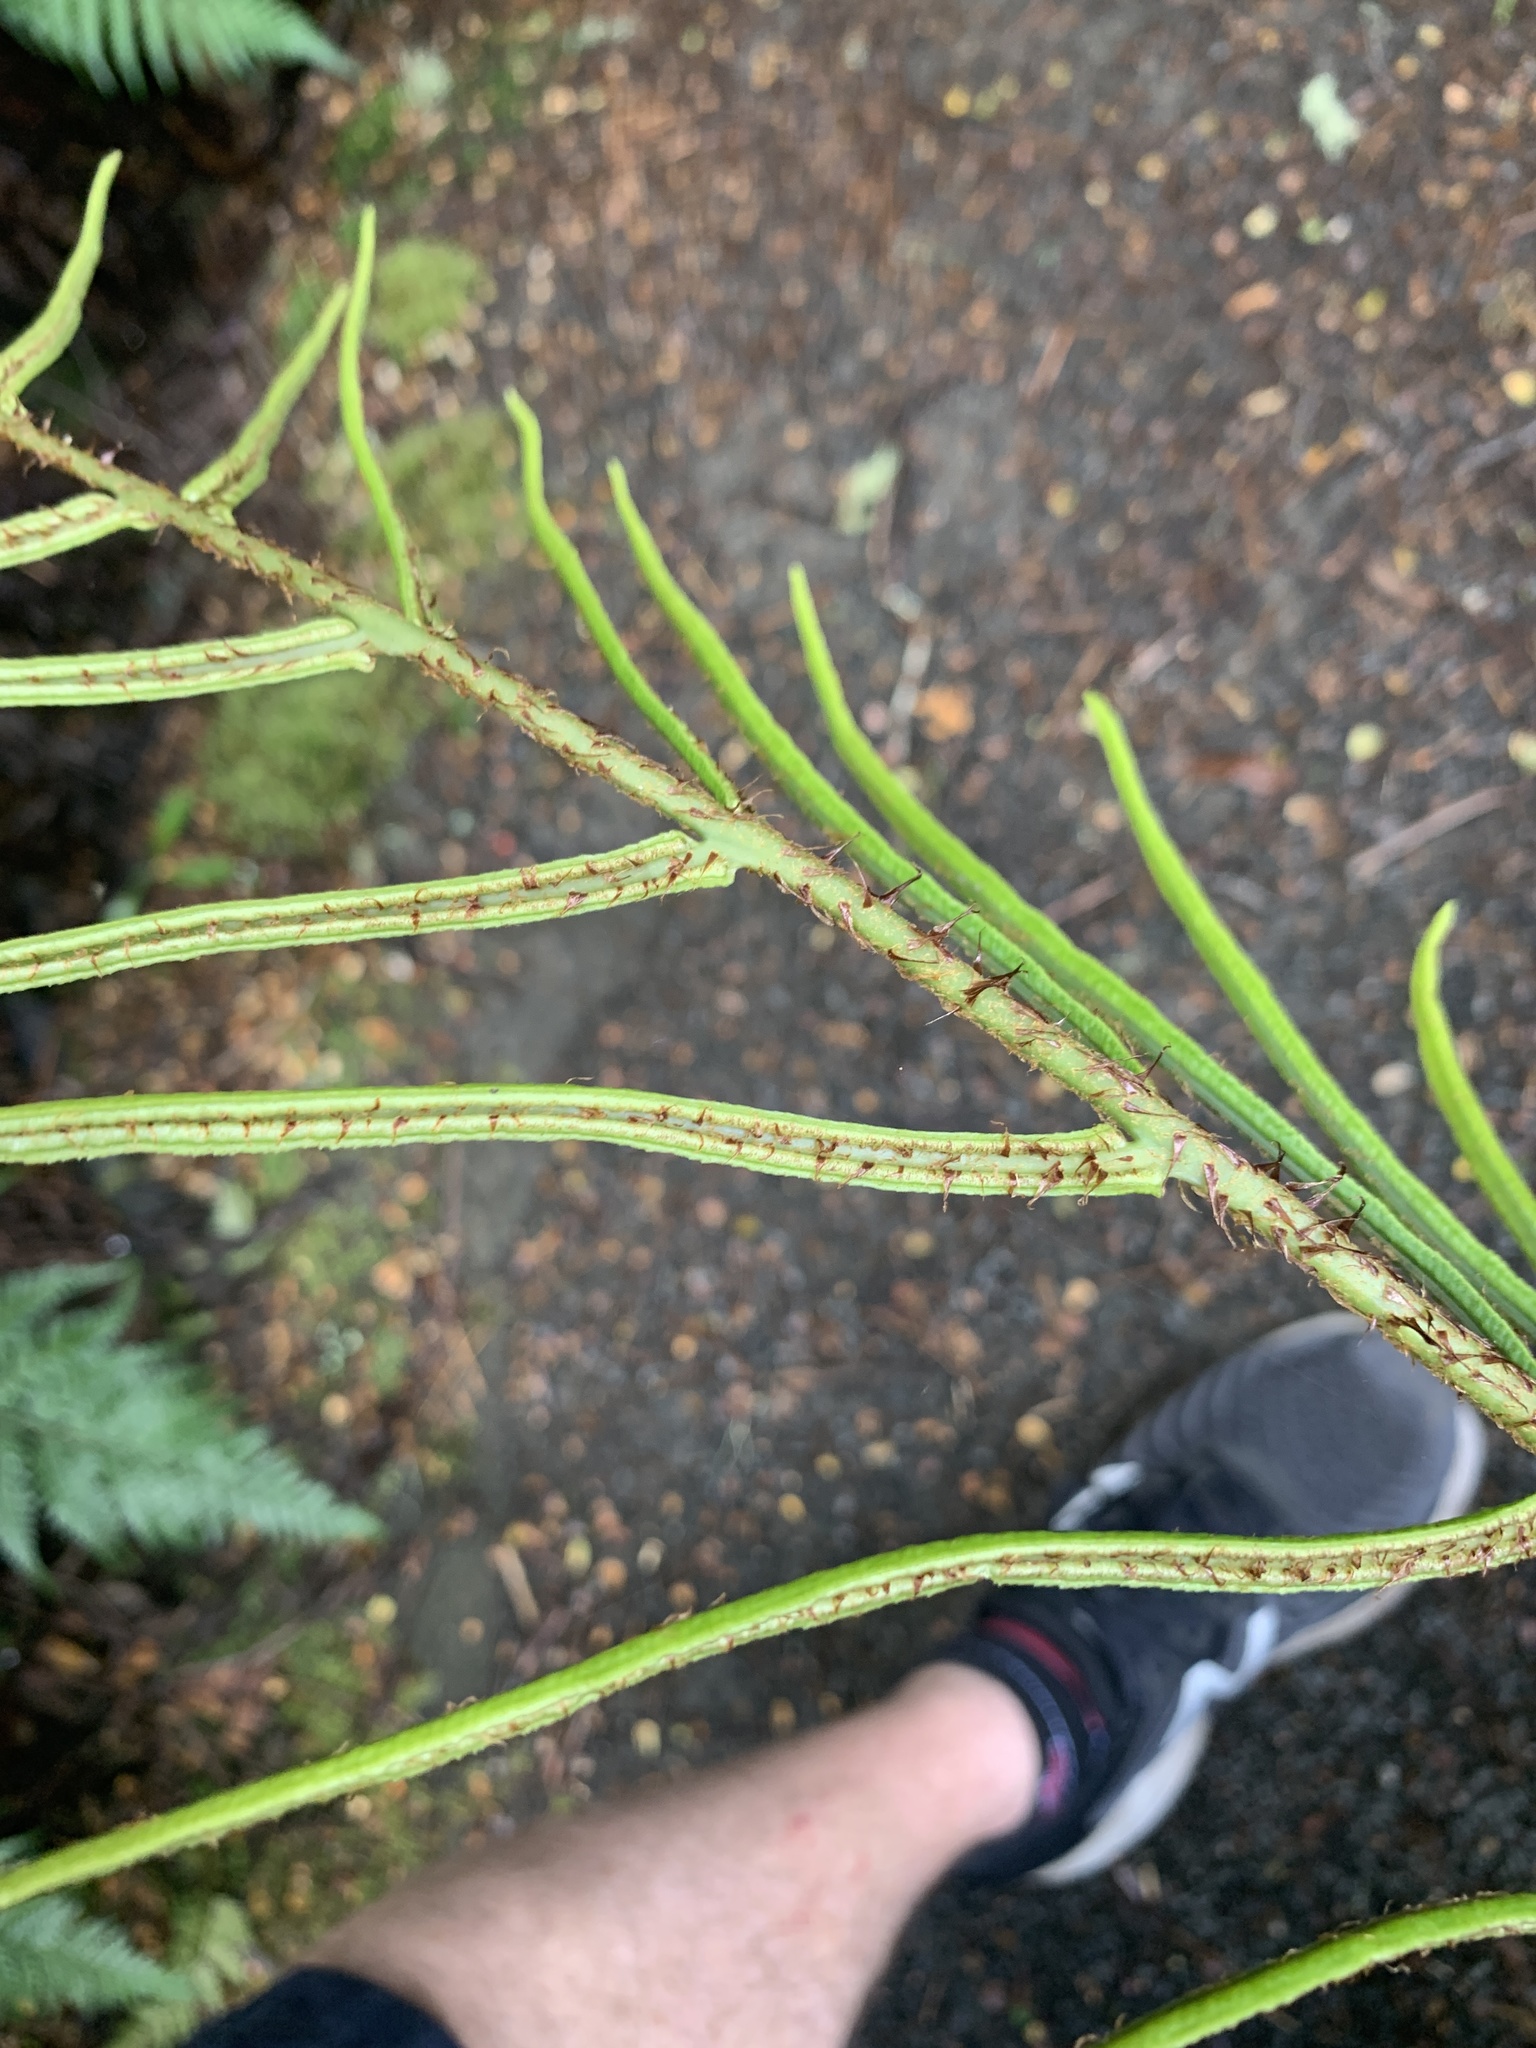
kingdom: Plantae
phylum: Tracheophyta
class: Polypodiopsida
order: Polypodiales
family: Blechnaceae
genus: Parablechnum
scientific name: Parablechnum wattsii
